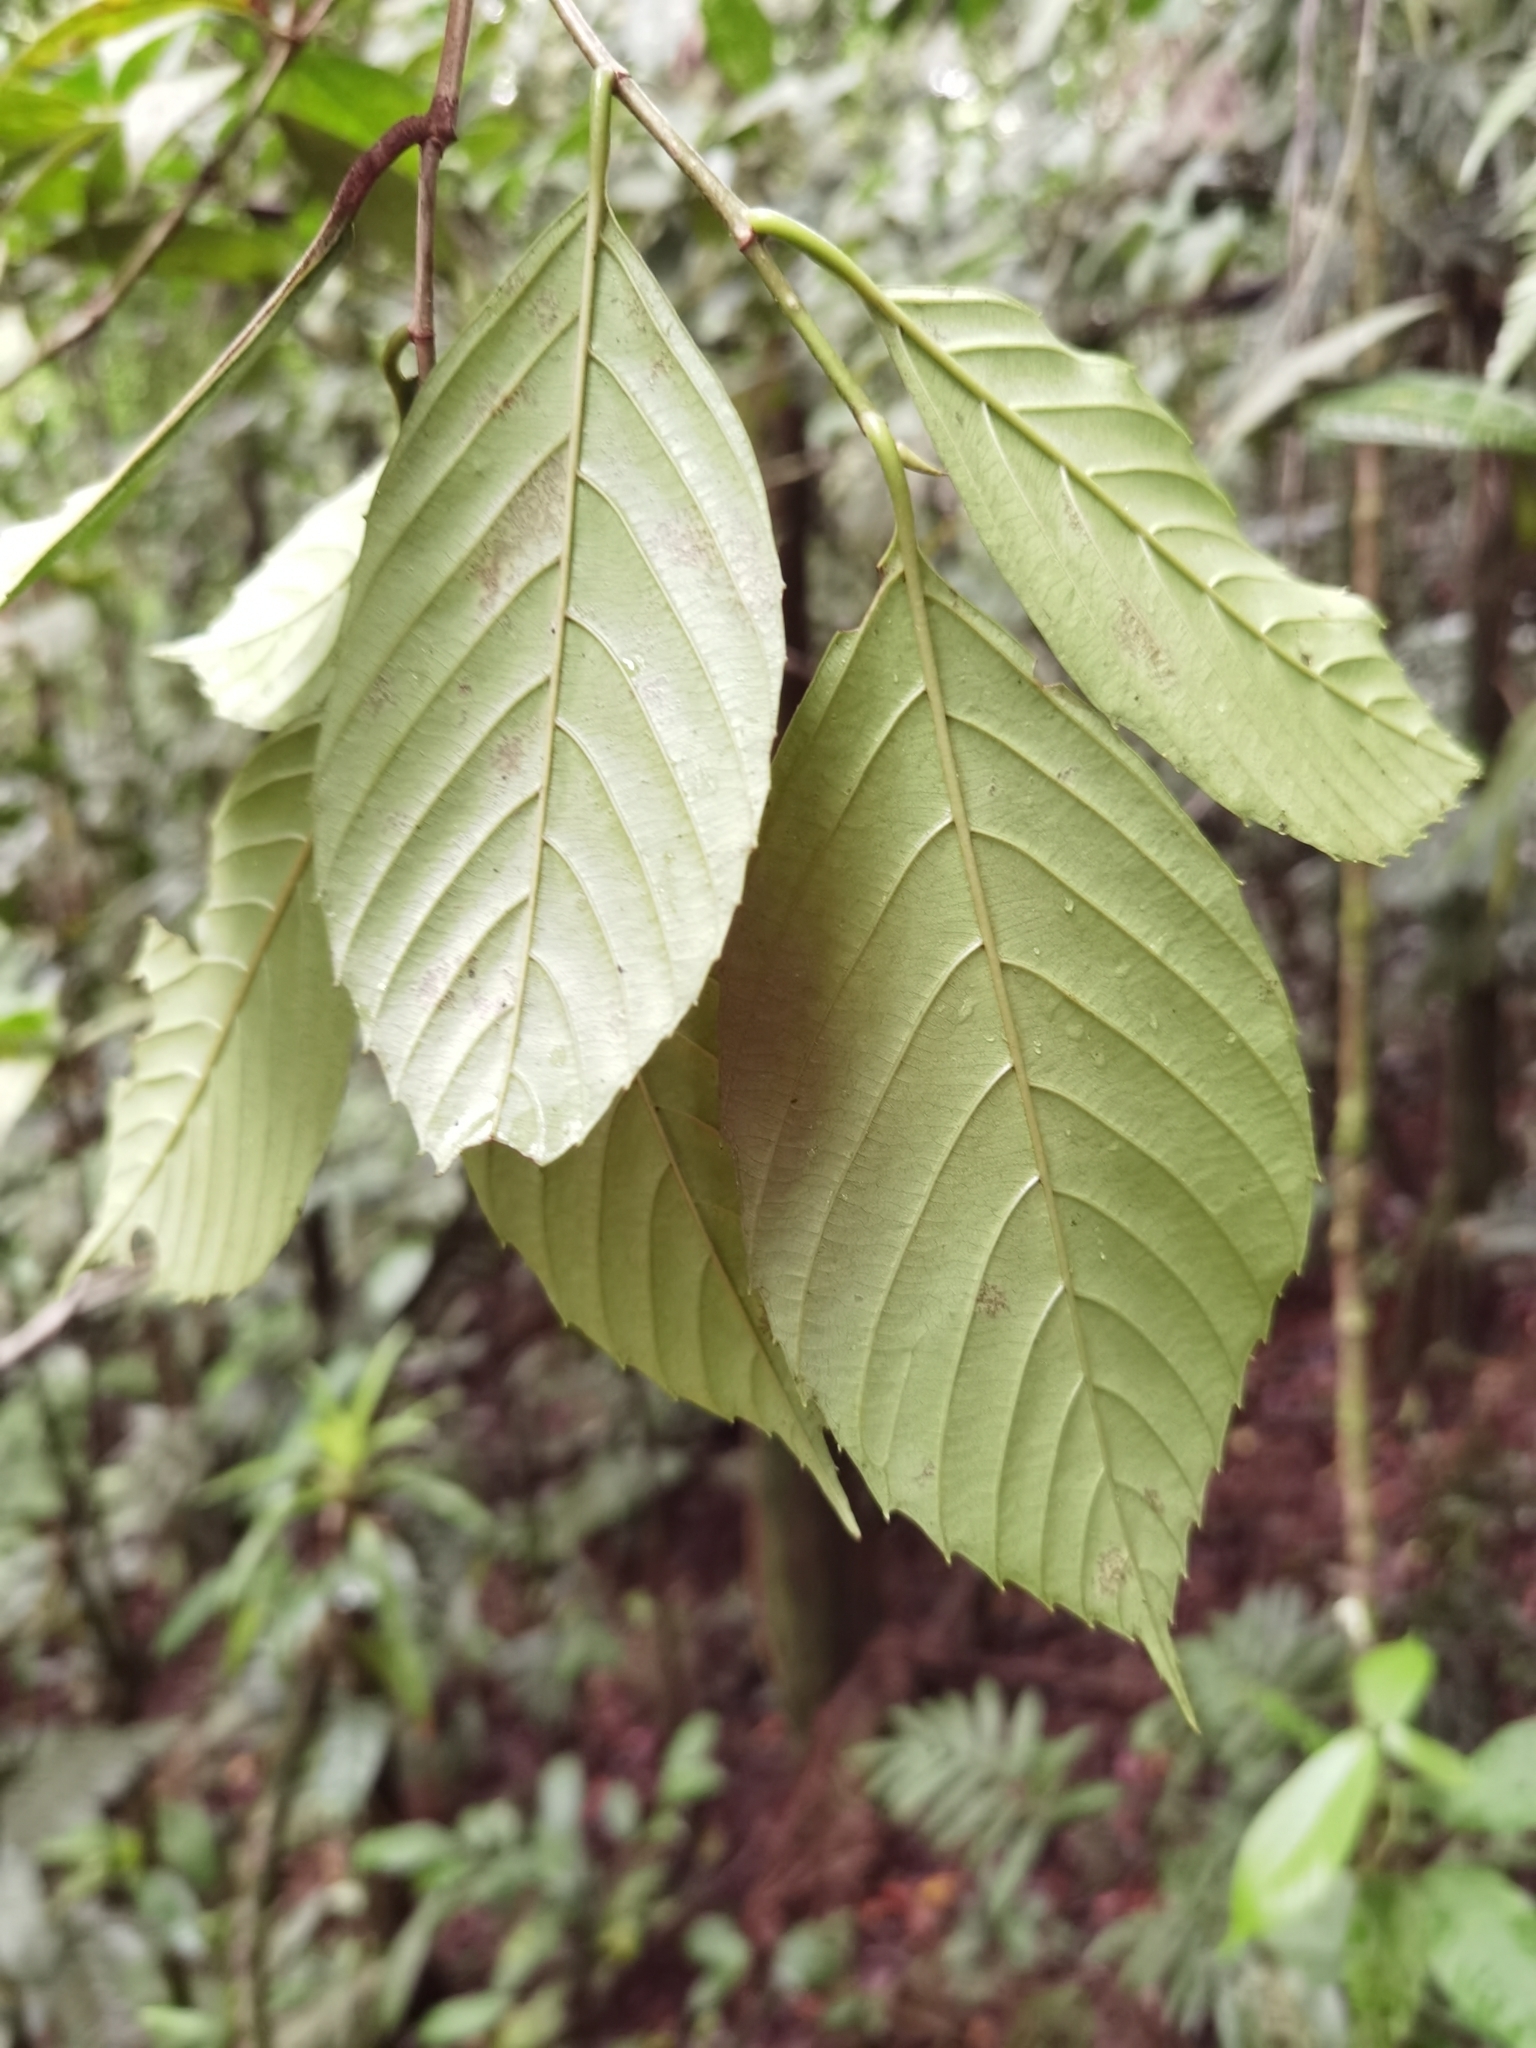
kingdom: Plantae
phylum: Tracheophyta
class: Magnoliopsida
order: Fagales
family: Ticodendraceae
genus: Ticodendron
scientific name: Ticodendron incognitum
